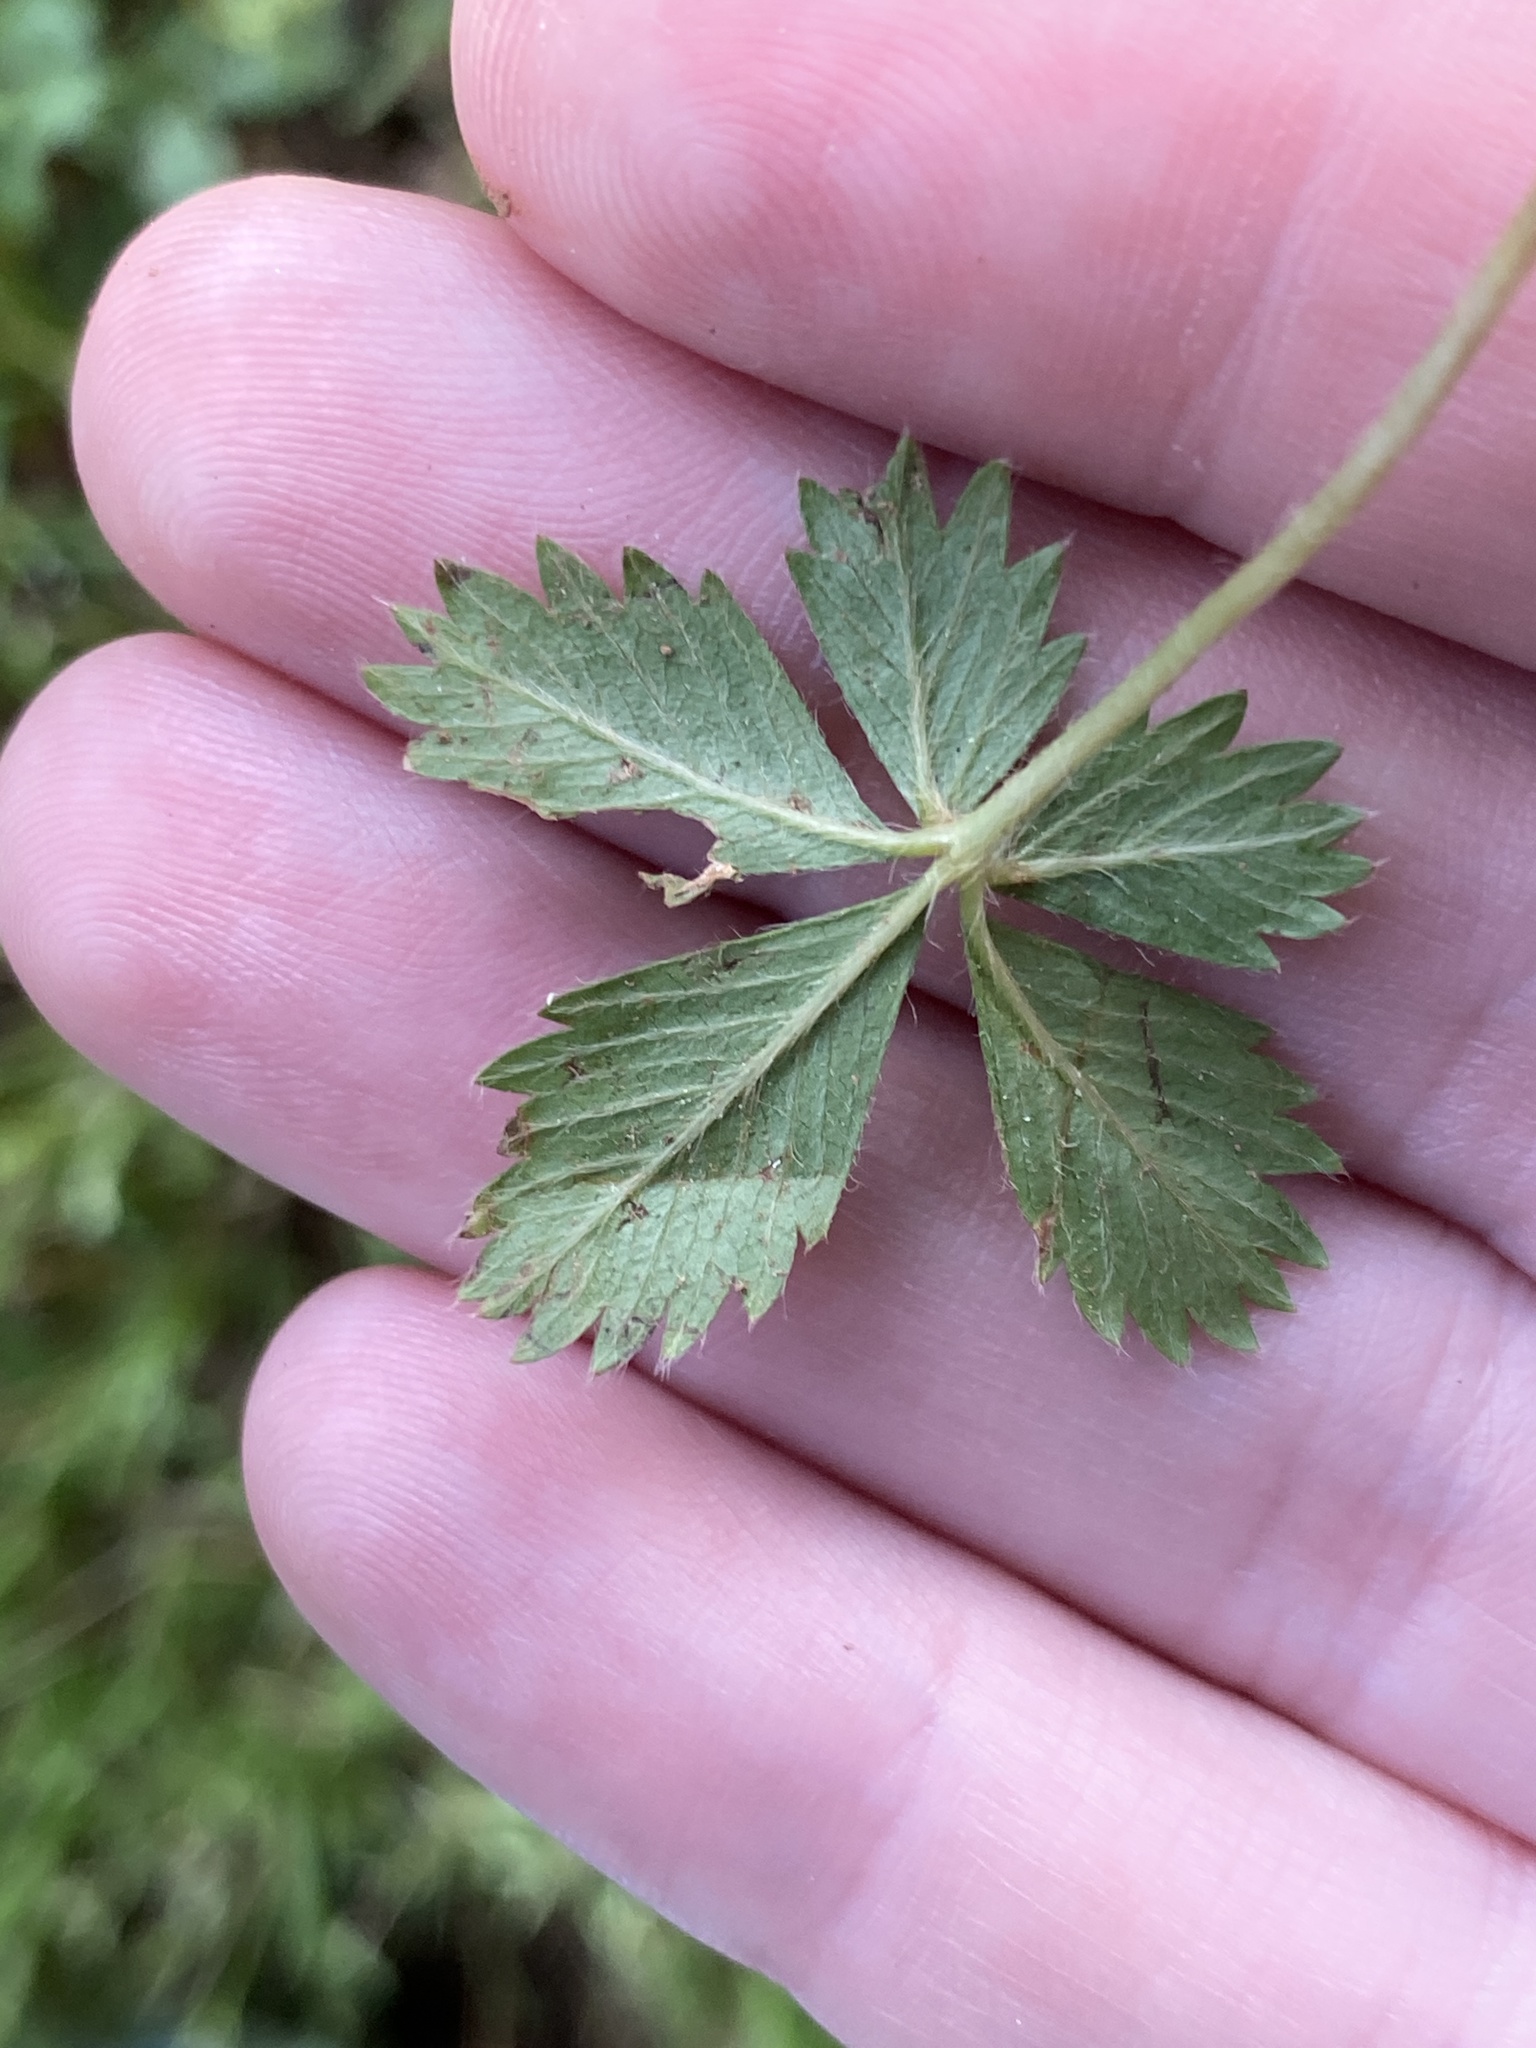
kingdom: Plantae
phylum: Tracheophyta
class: Magnoliopsida
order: Rosales
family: Rosaceae
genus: Potentilla
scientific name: Potentilla canadensis
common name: Canada cinquefoil
